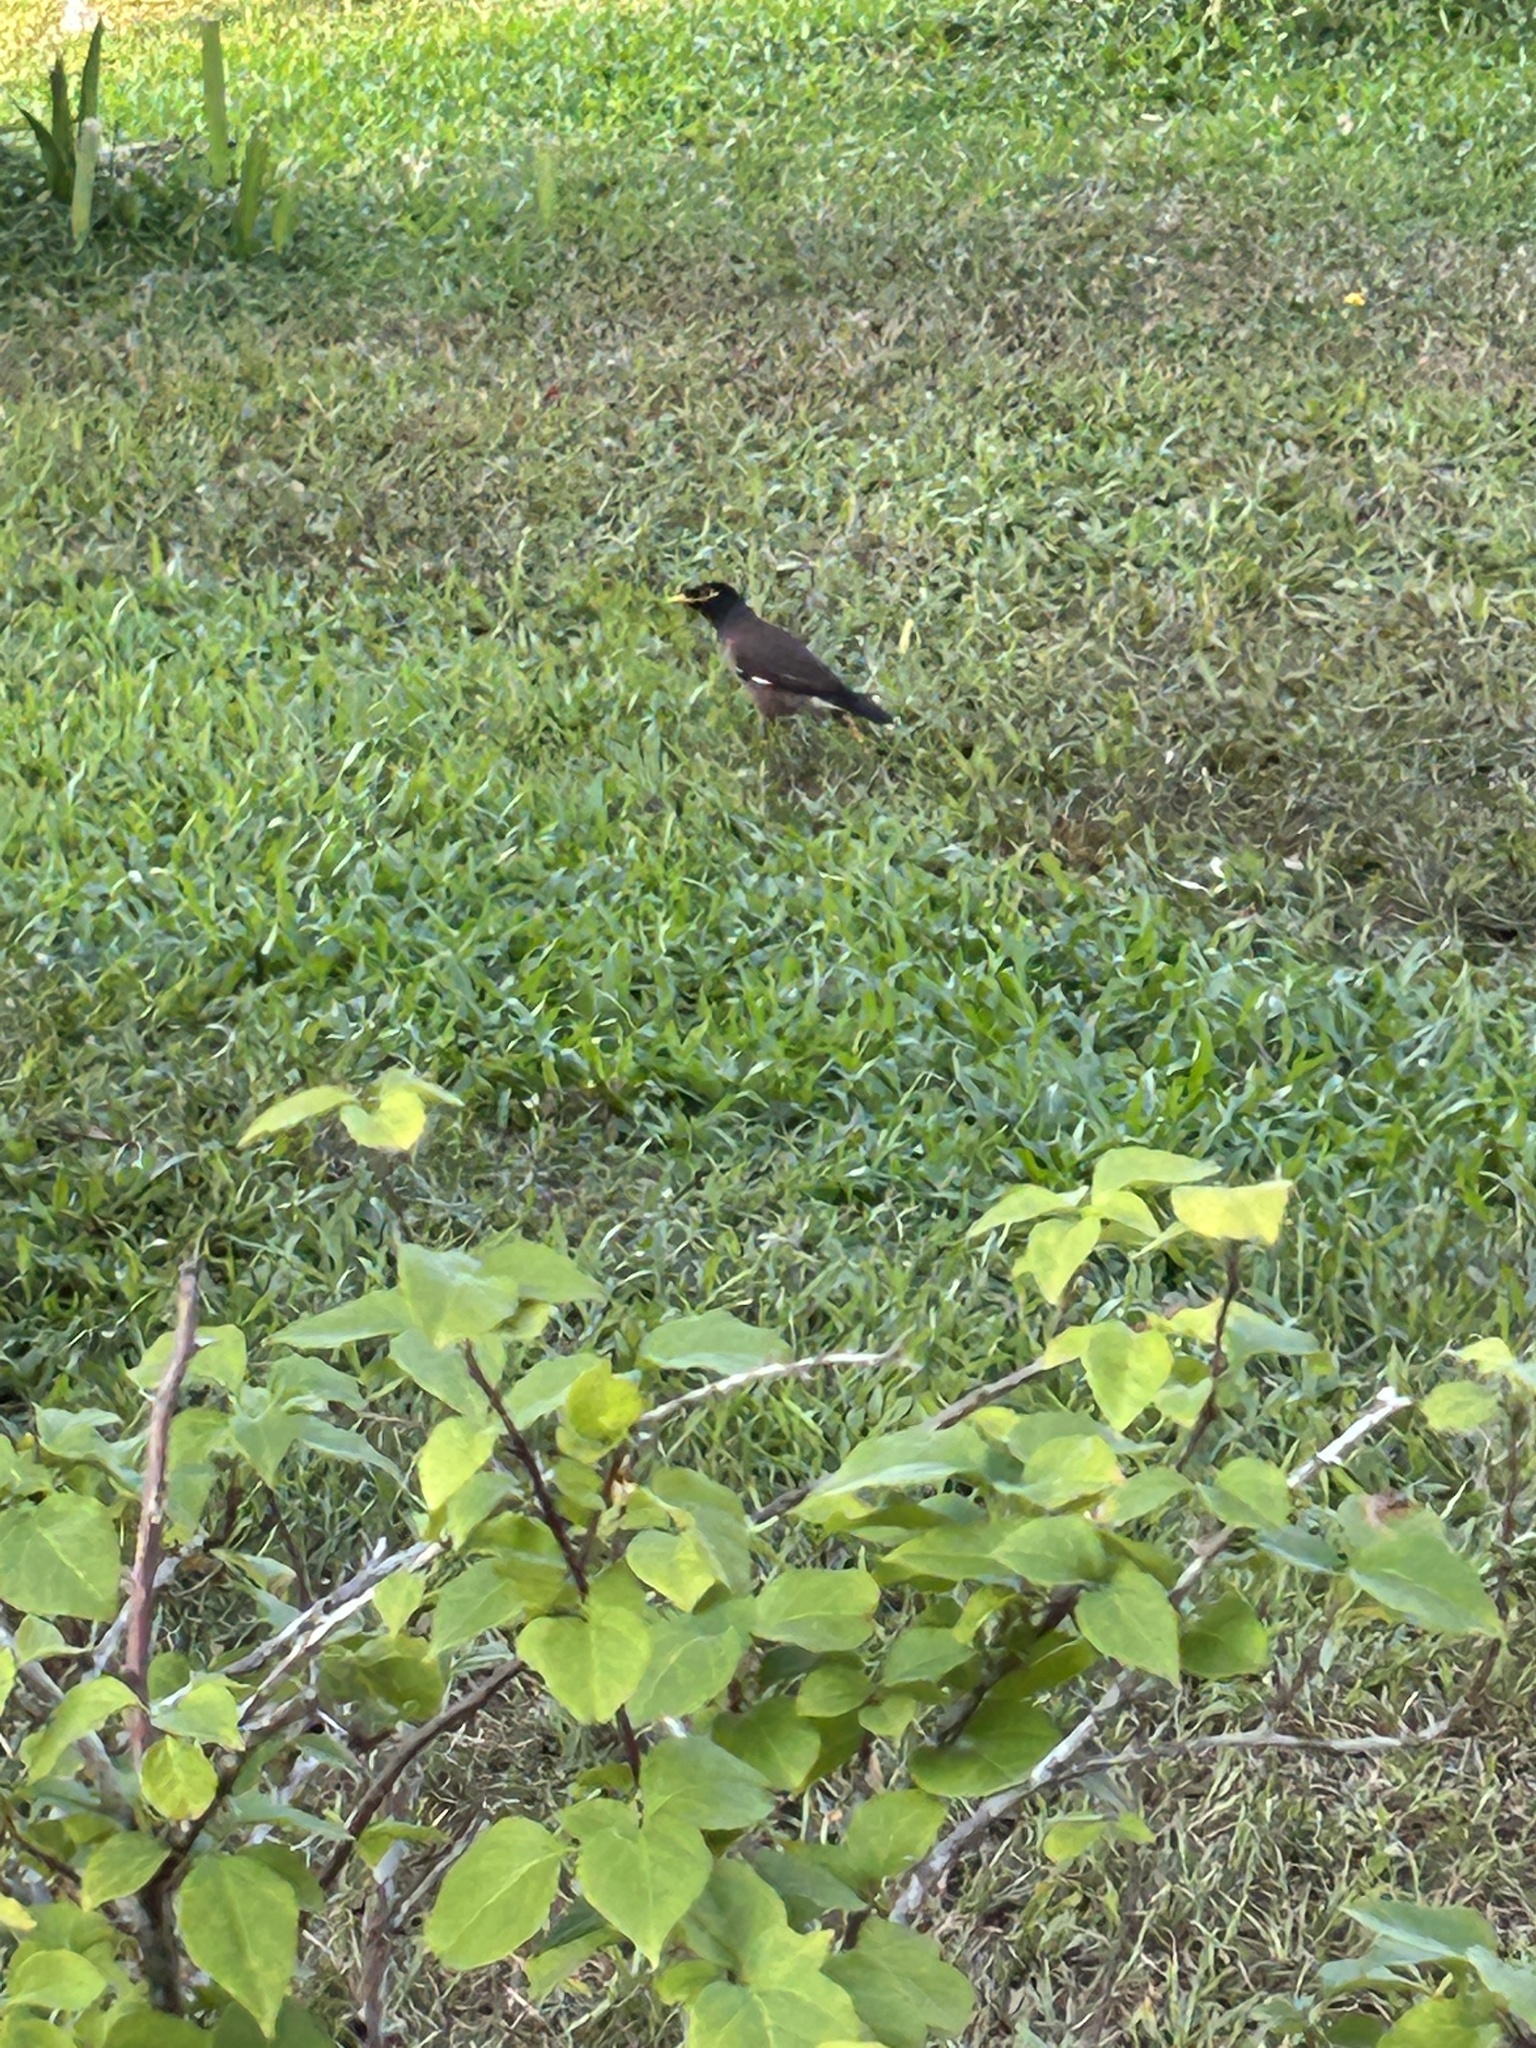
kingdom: Animalia
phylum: Chordata
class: Aves
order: Passeriformes
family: Sturnidae
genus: Acridotheres
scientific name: Acridotheres tristis
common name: Common myna
